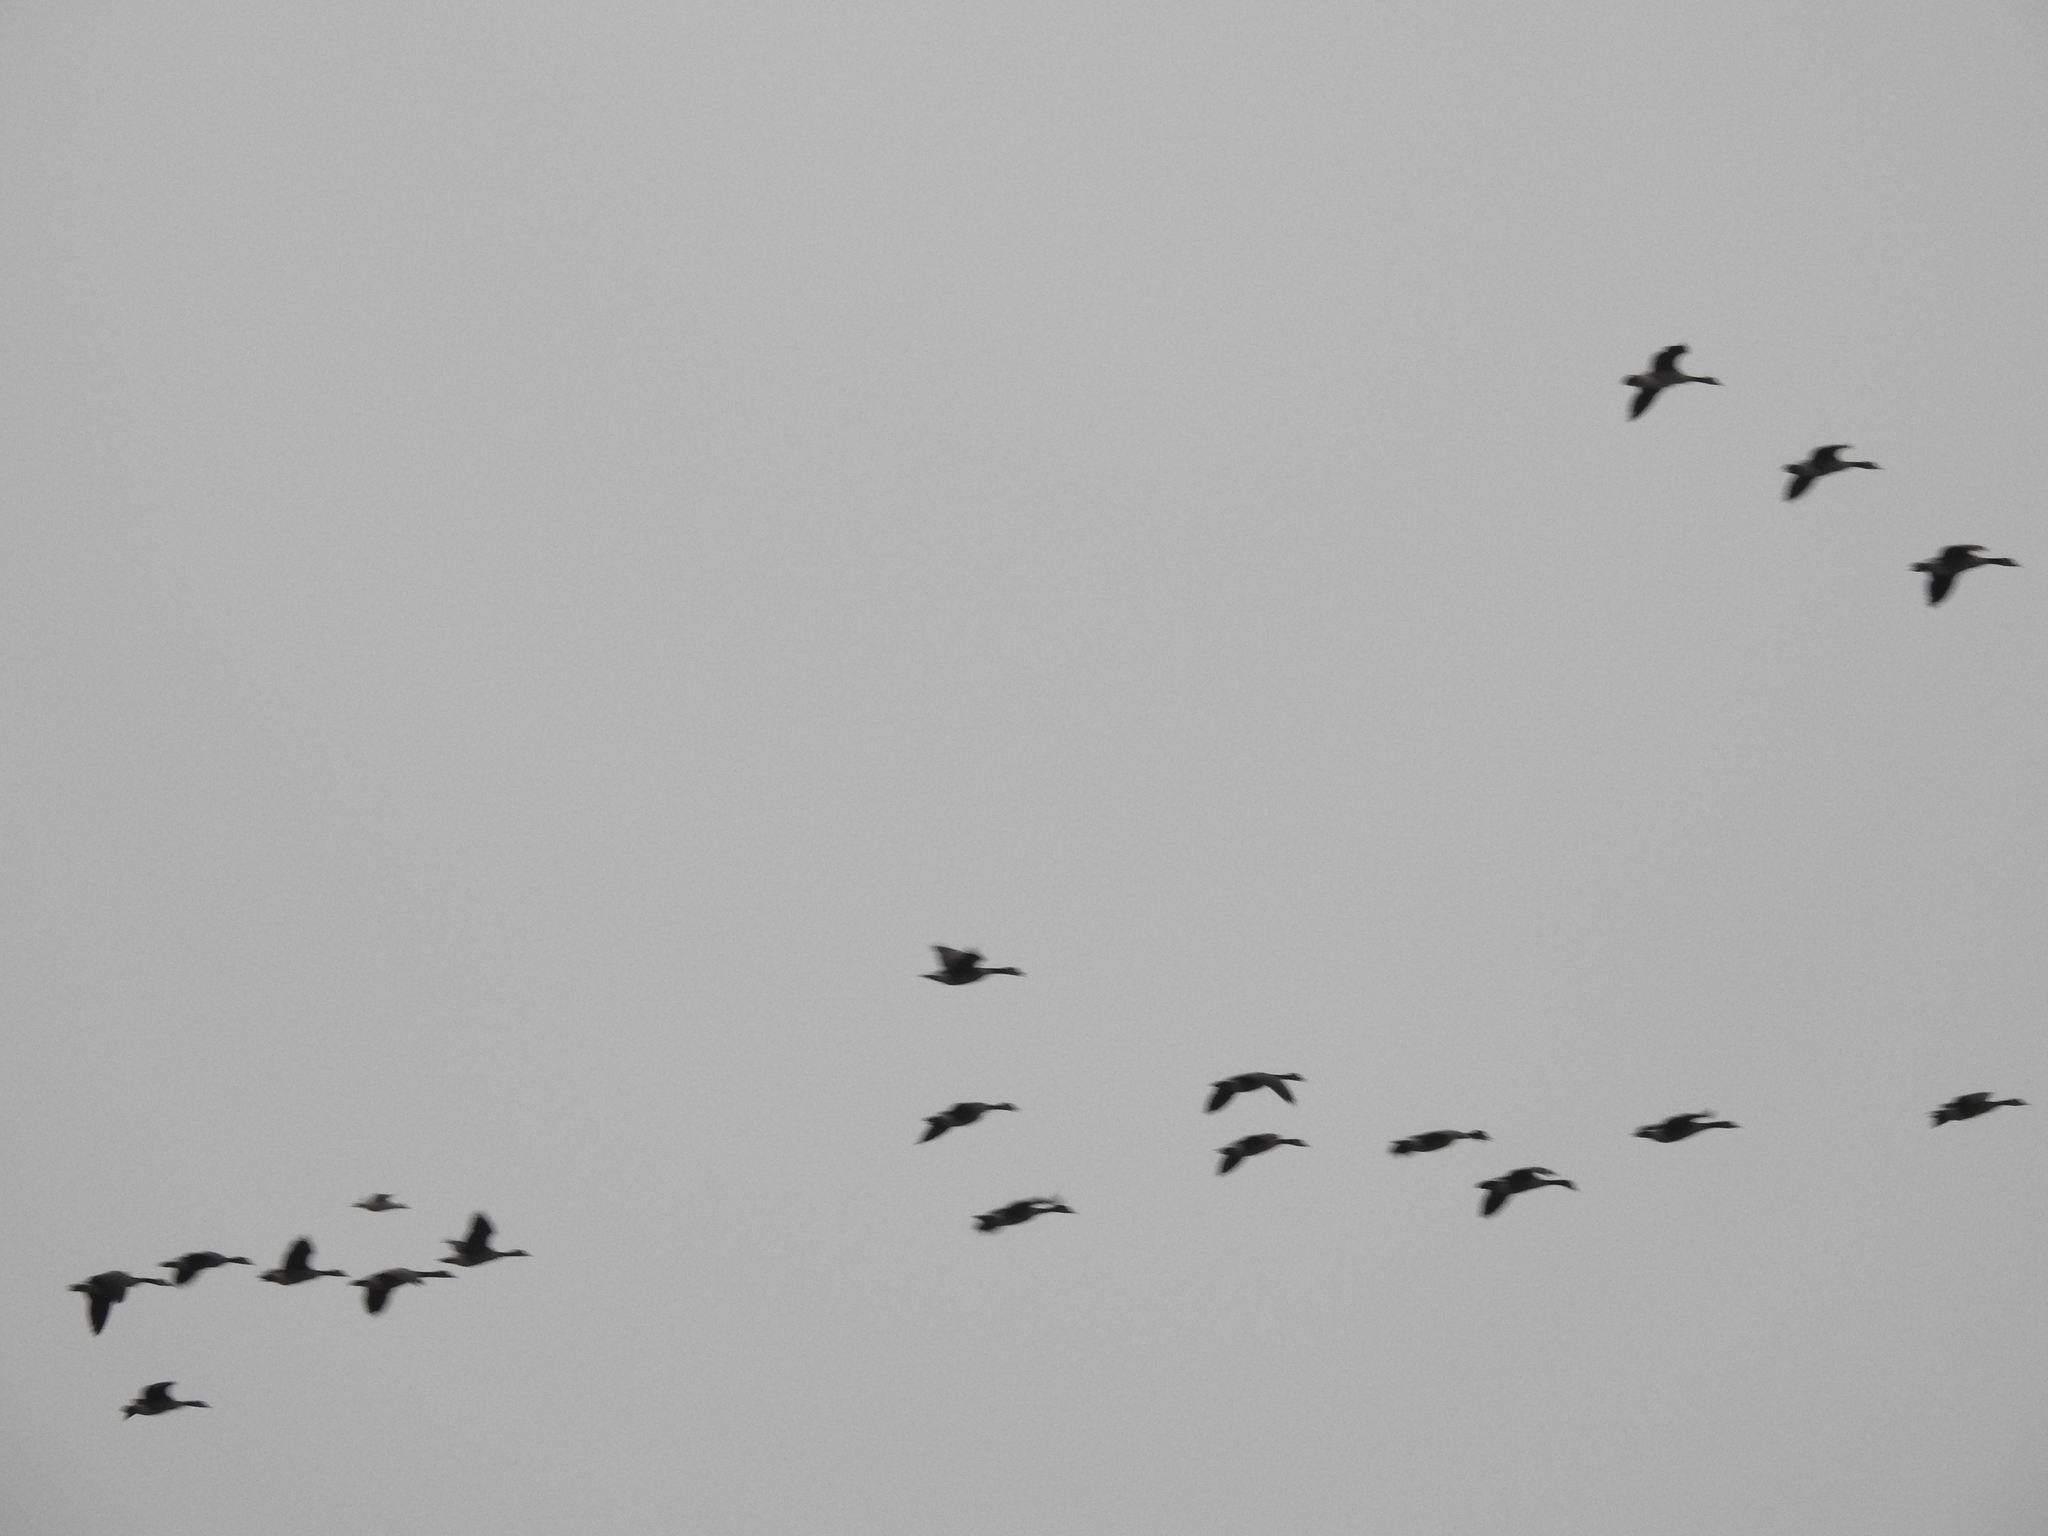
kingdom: Animalia
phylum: Chordata
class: Aves
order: Anseriformes
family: Anatidae
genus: Branta
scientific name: Branta canadensis
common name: Canada goose
